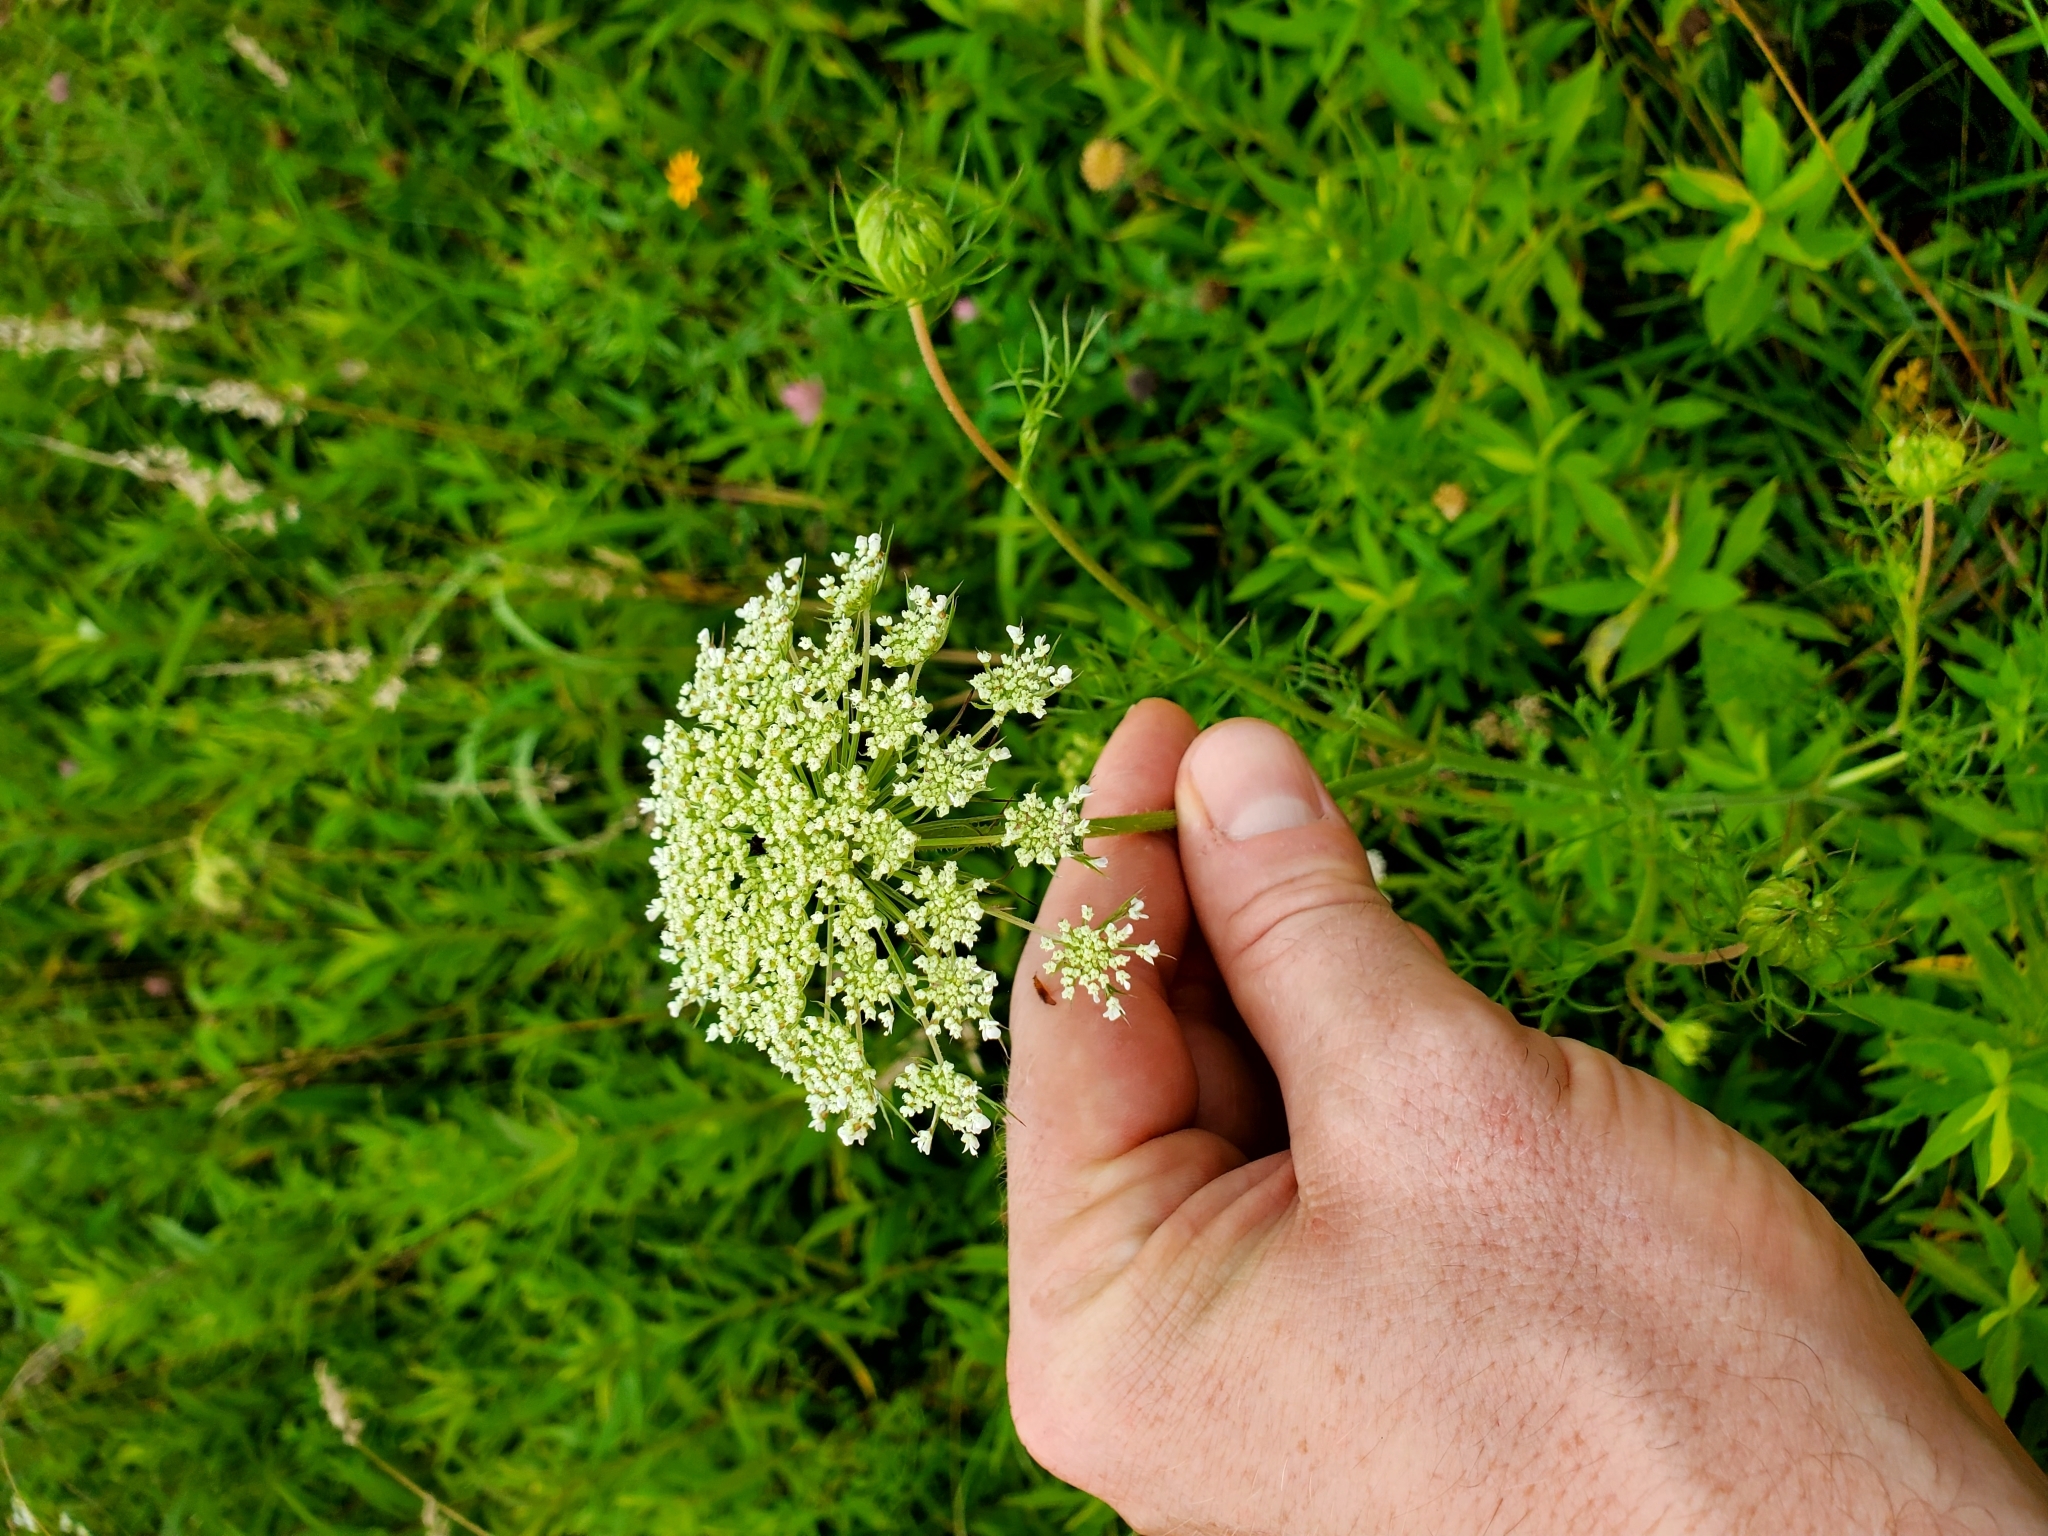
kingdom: Plantae
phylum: Tracheophyta
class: Magnoliopsida
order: Apiales
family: Apiaceae
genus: Daucus
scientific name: Daucus carota
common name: Wild carrot
